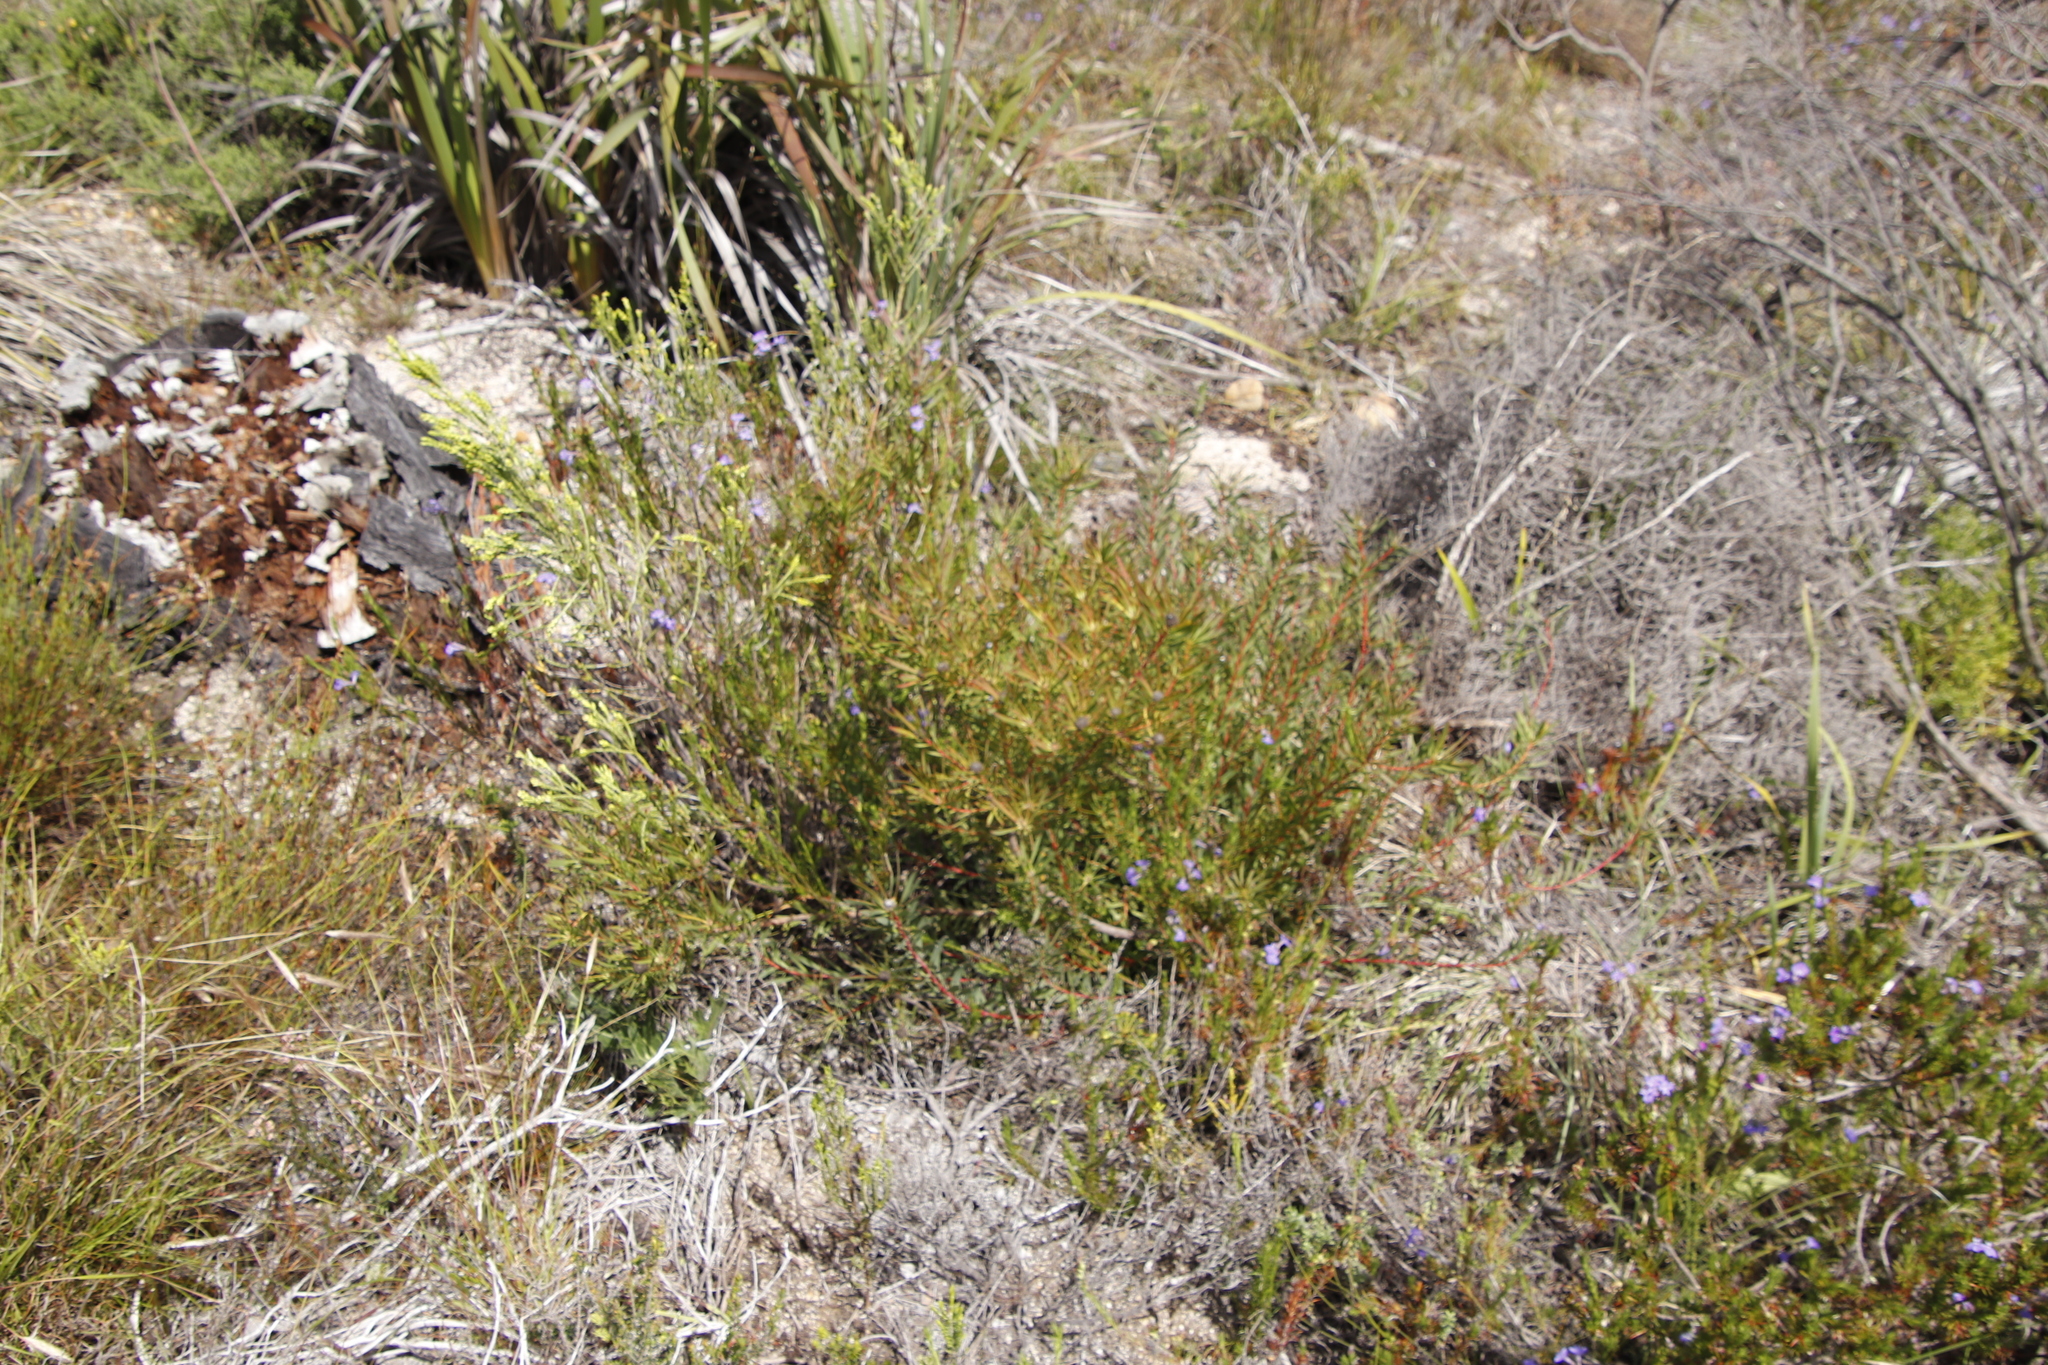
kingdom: Plantae
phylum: Tracheophyta
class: Magnoliopsida
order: Proteales
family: Proteaceae
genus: Leucadendron
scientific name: Leucadendron salignum
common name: Common sunshine conebush
